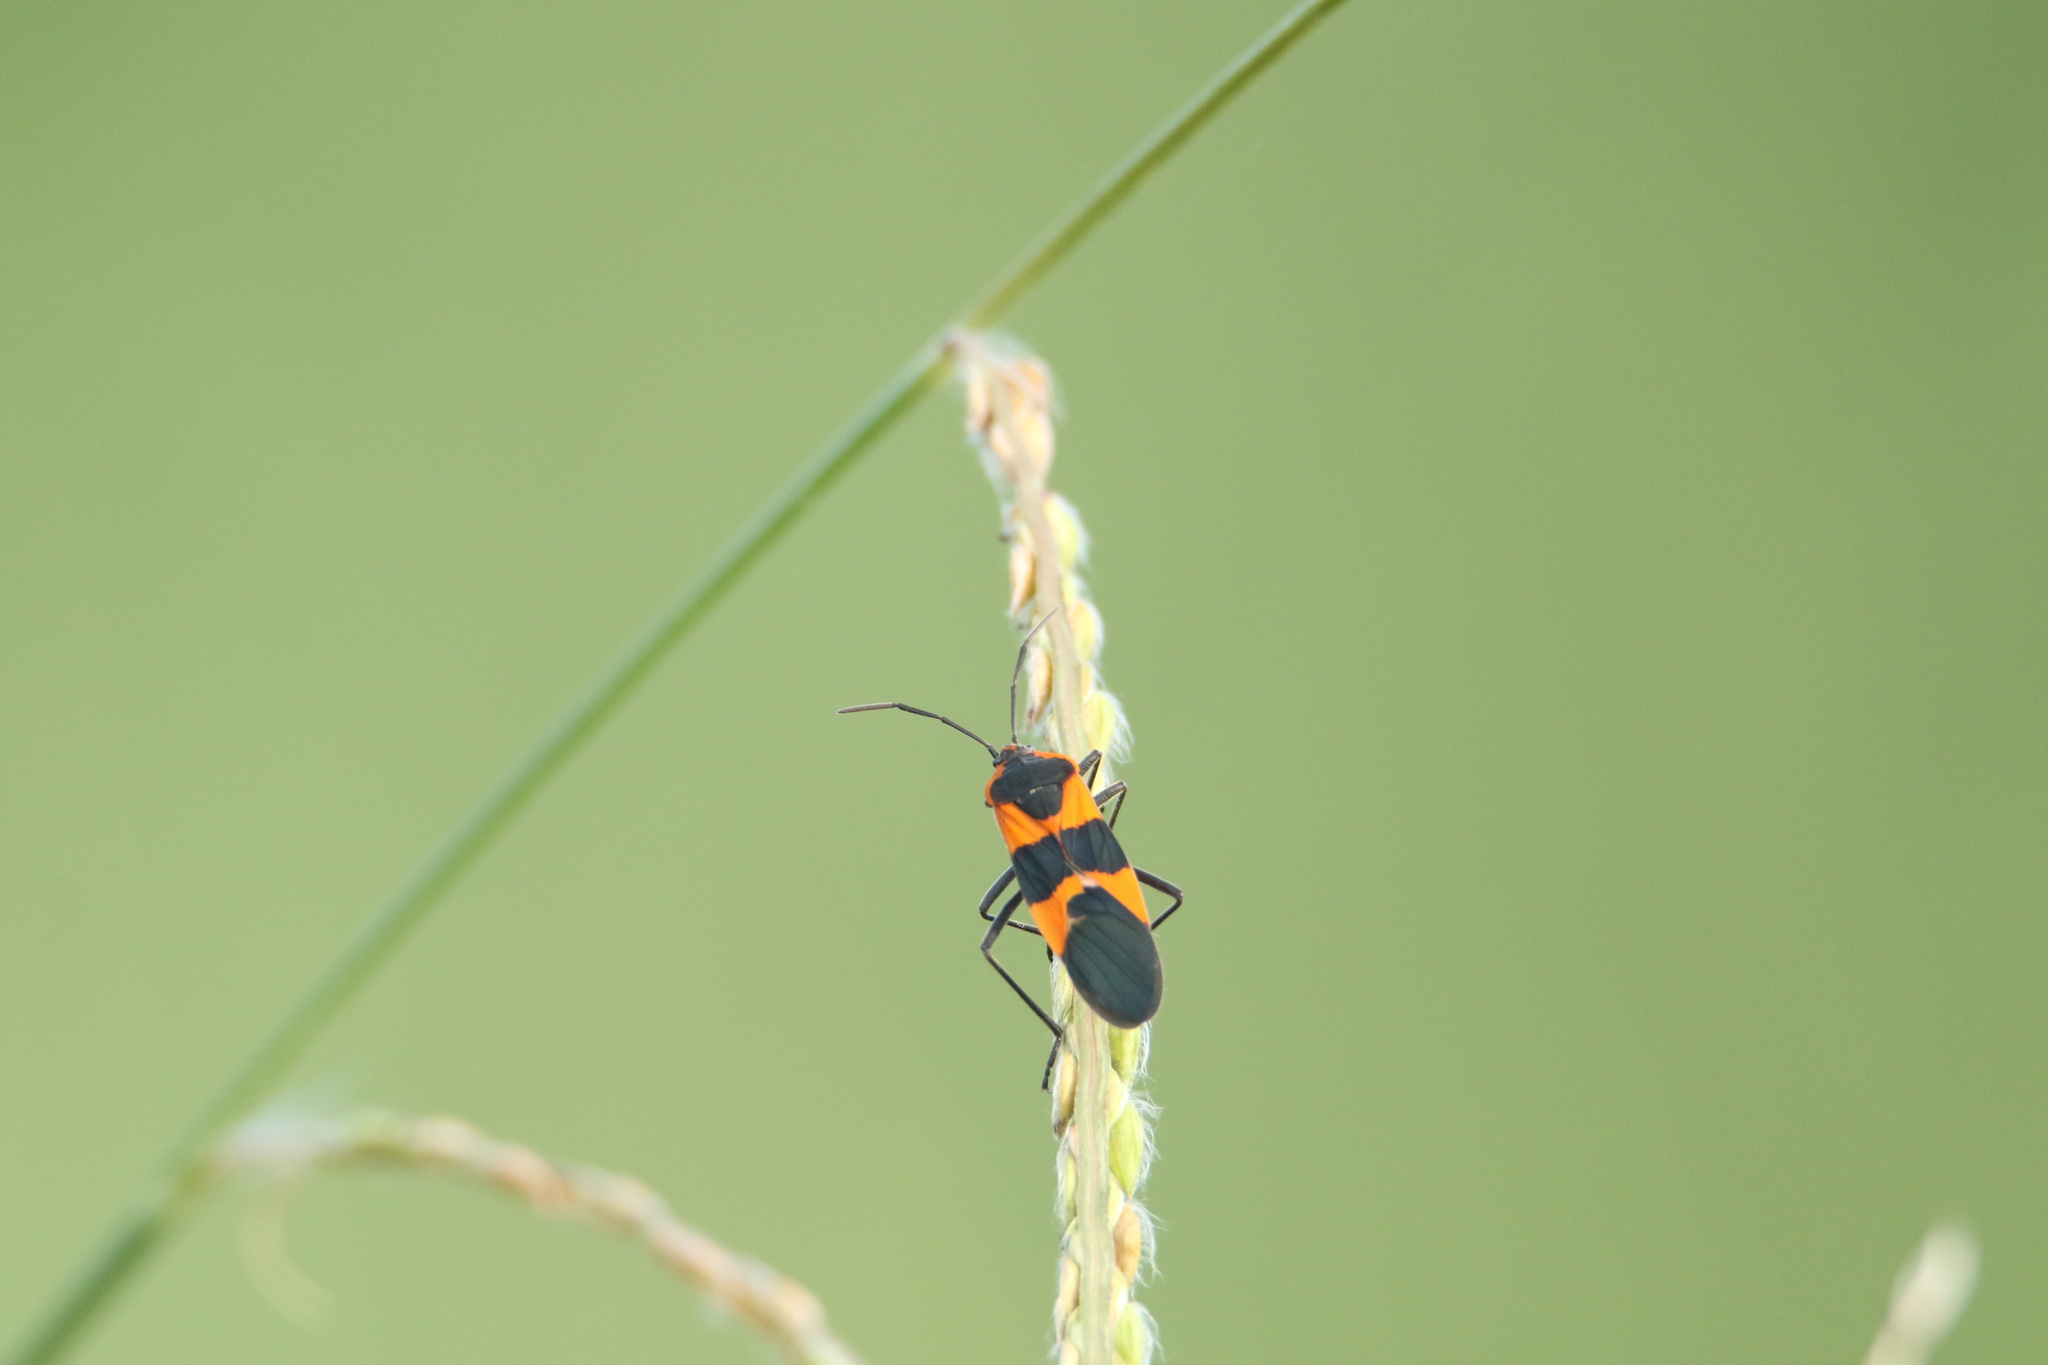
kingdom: Animalia
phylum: Arthropoda
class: Insecta
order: Hemiptera
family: Lygaeidae
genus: Oncopeltus
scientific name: Oncopeltus fasciatus
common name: Large milkweed bug
